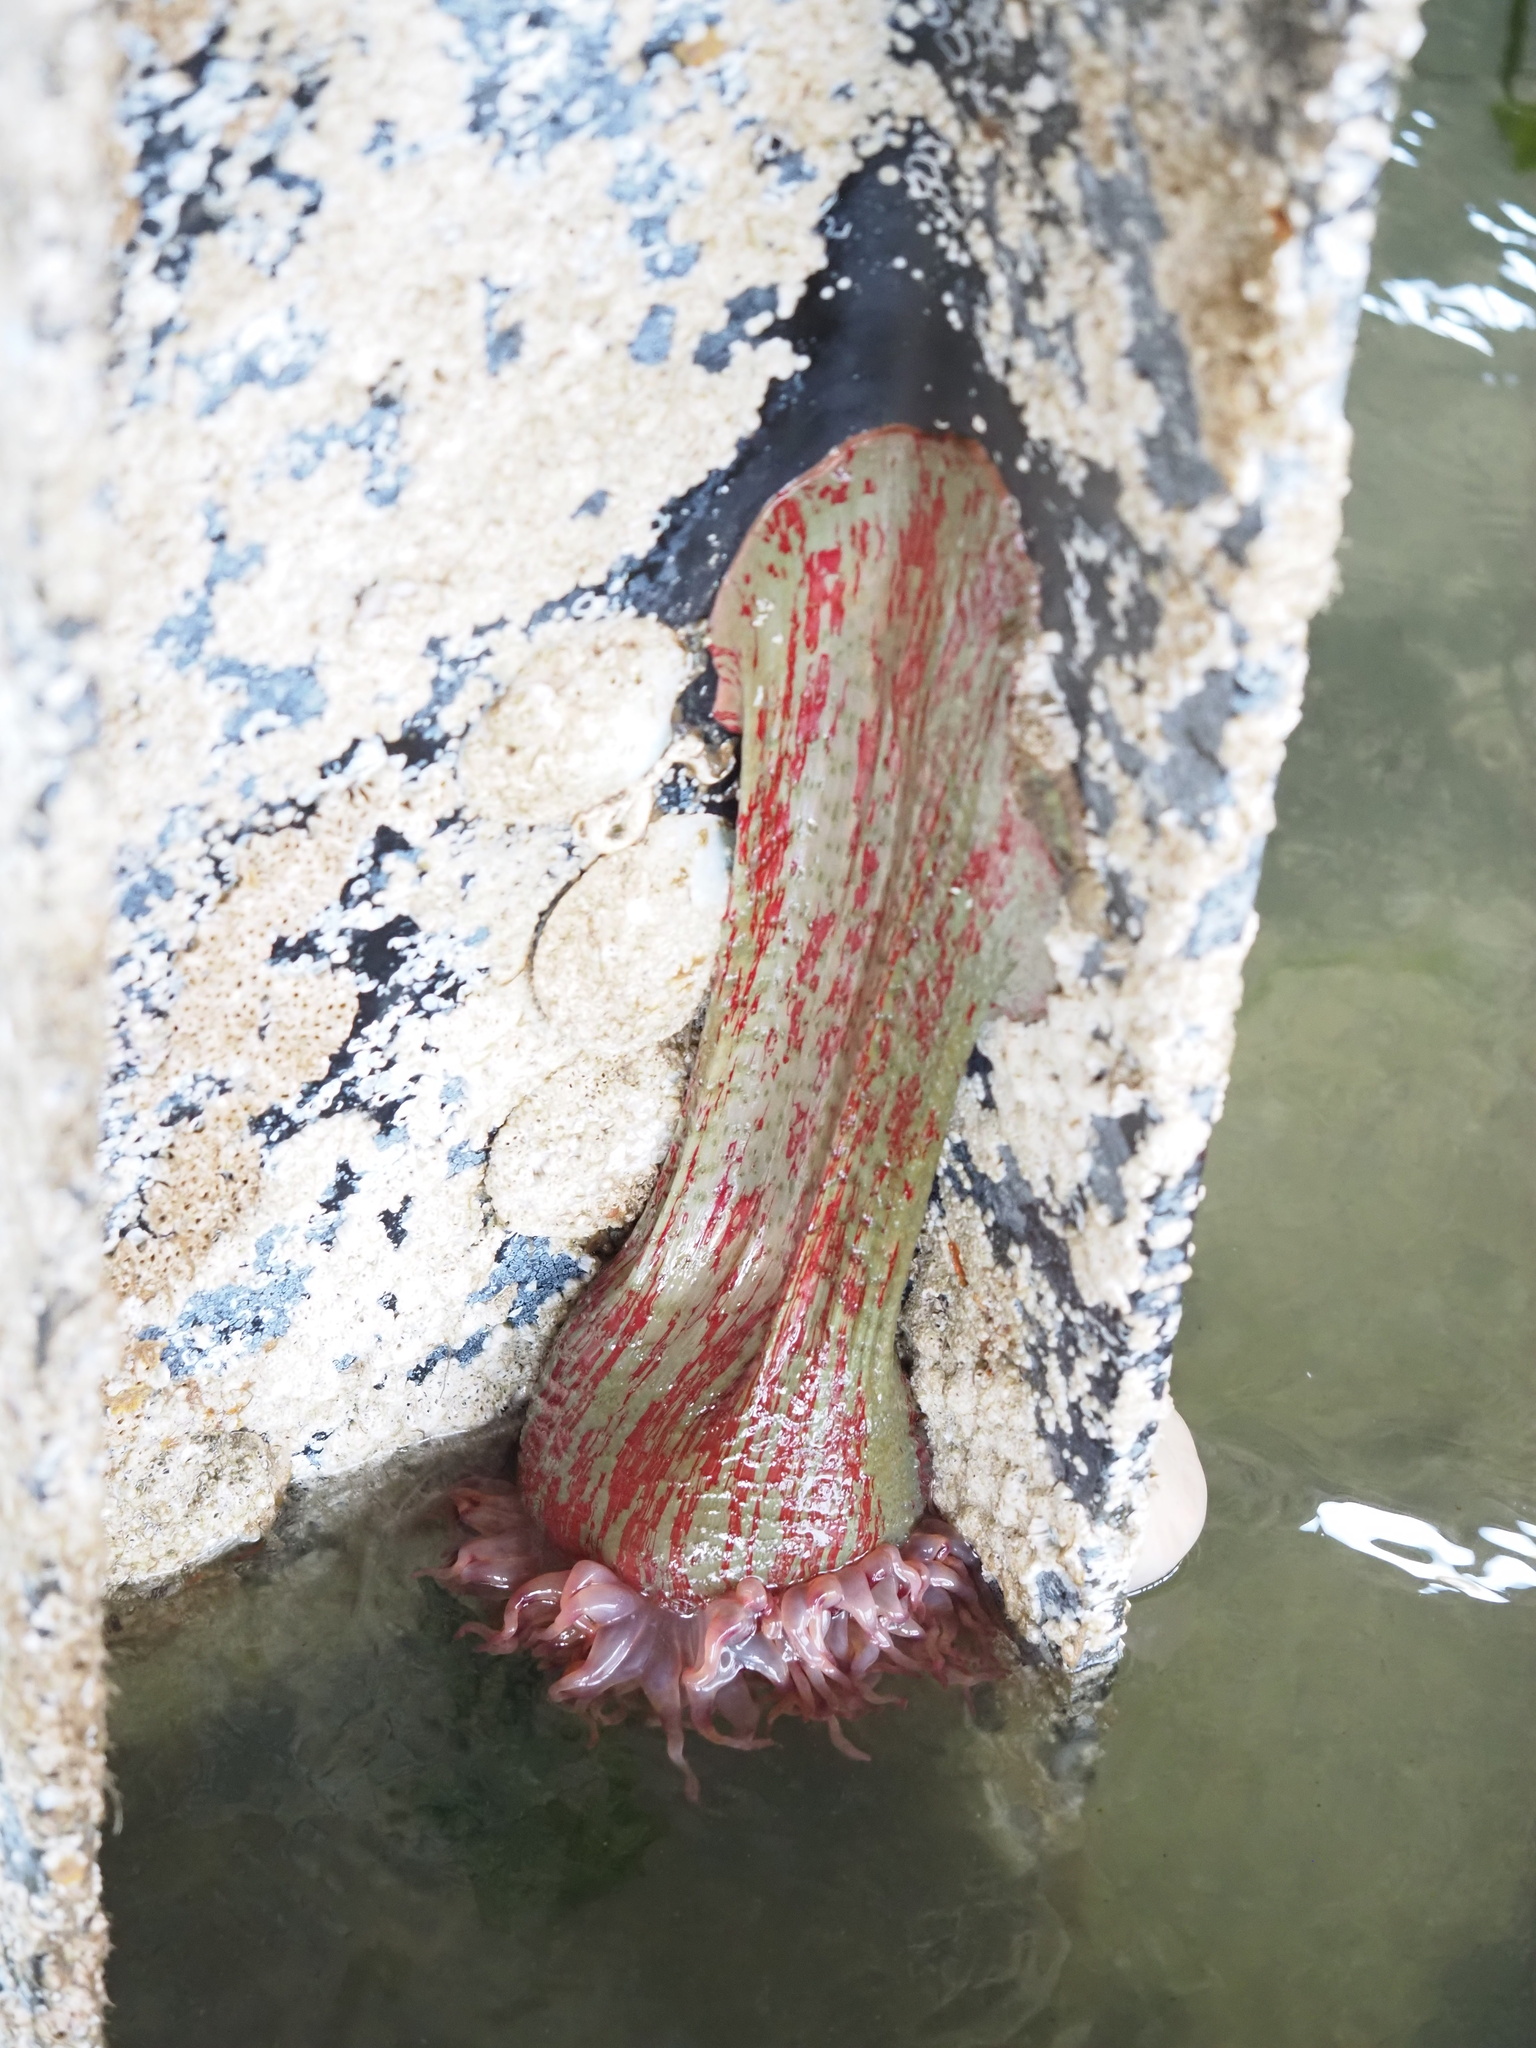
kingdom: Animalia
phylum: Cnidaria
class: Anthozoa
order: Actiniaria
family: Actiniidae
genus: Urticina
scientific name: Urticina grebelnyi
